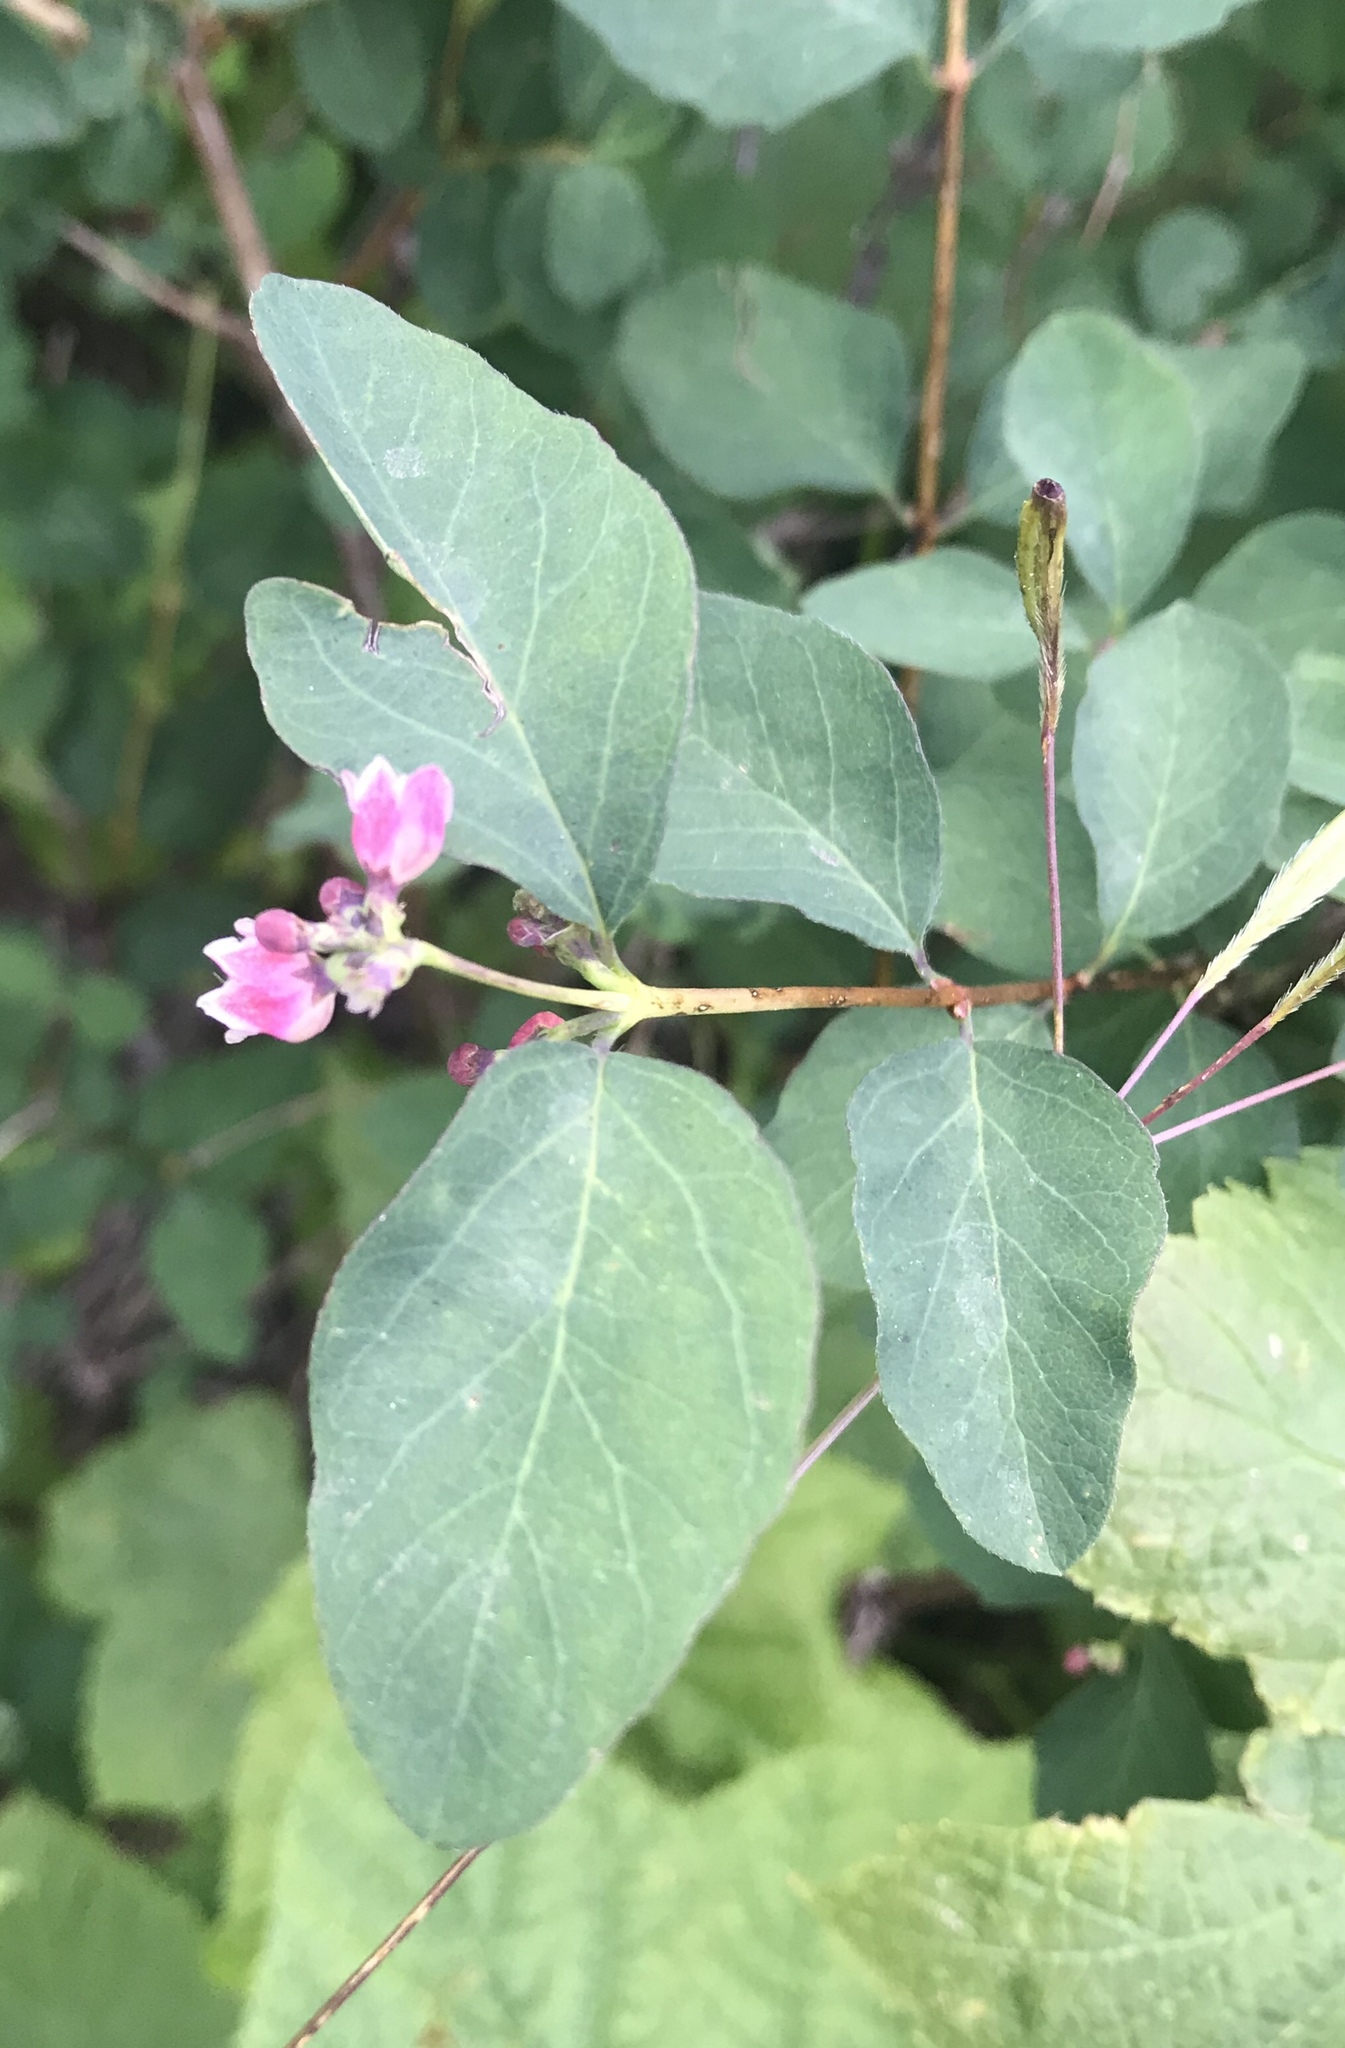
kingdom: Plantae
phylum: Tracheophyta
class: Magnoliopsida
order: Dipsacales
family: Caprifoliaceae
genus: Symphoricarpos
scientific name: Symphoricarpos albus
